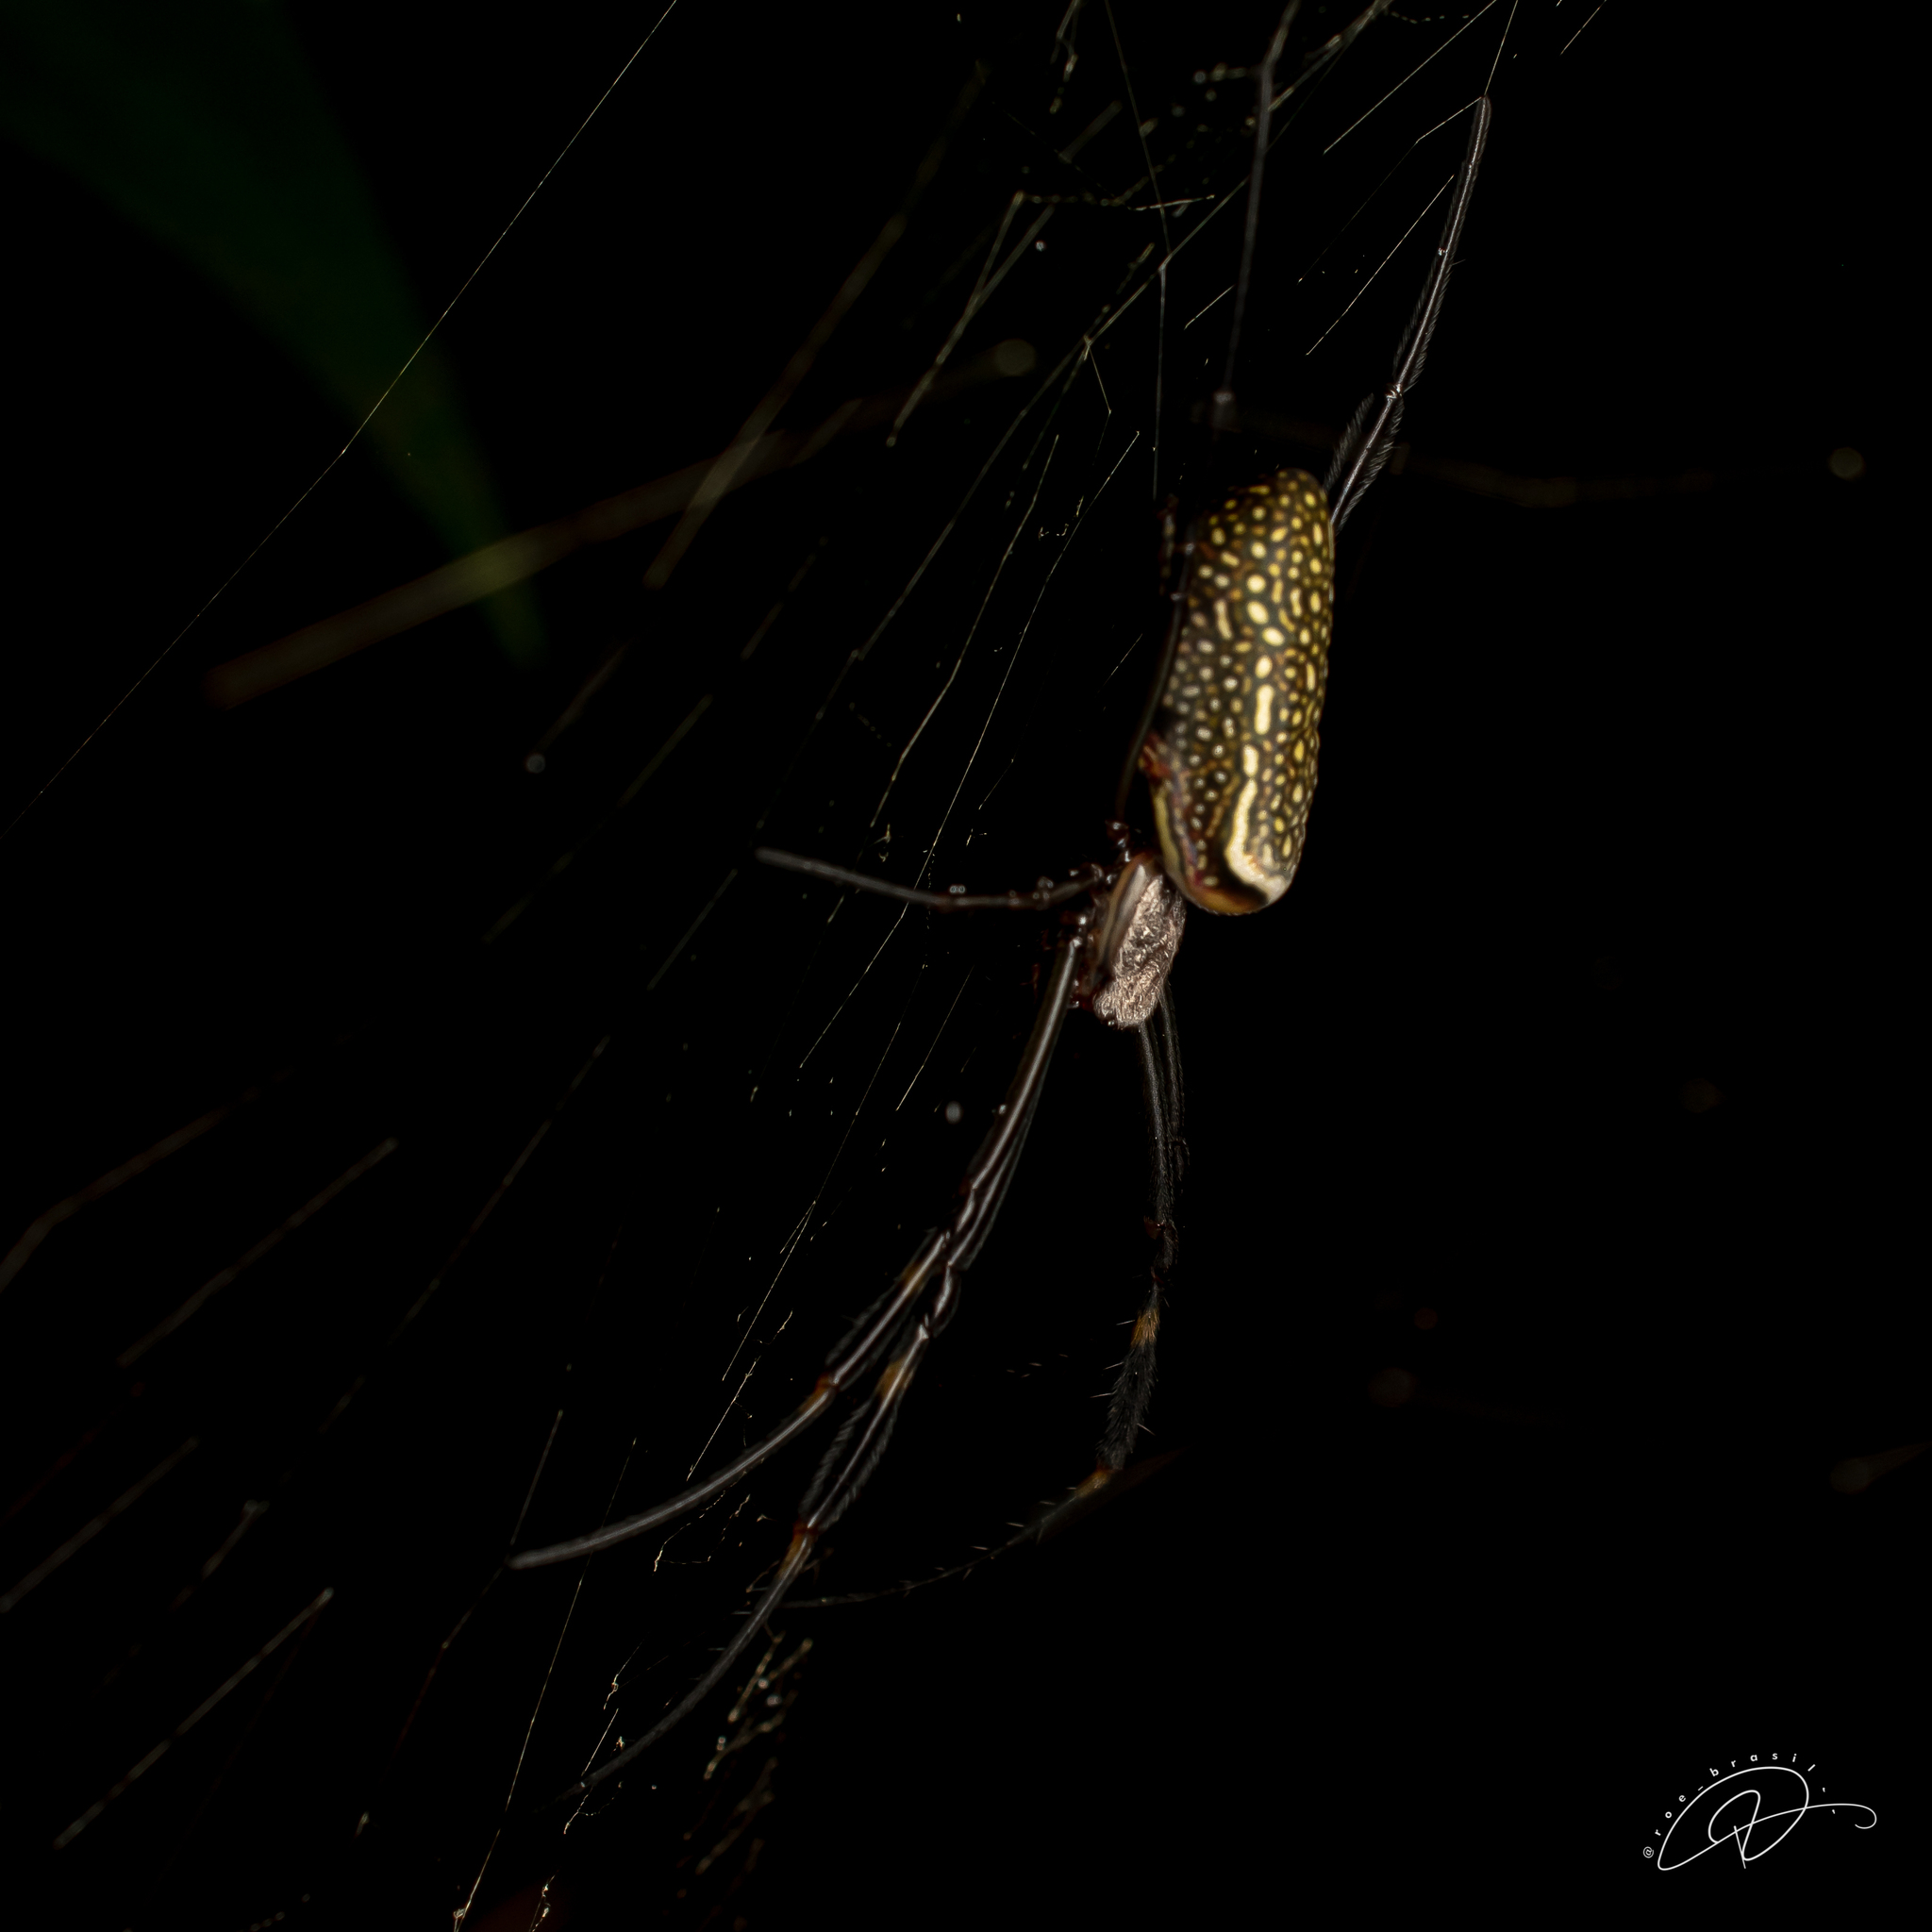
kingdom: Animalia
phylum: Arthropoda
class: Arachnida
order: Araneae
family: Araneidae
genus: Trichonephila
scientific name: Trichonephila clavipes
